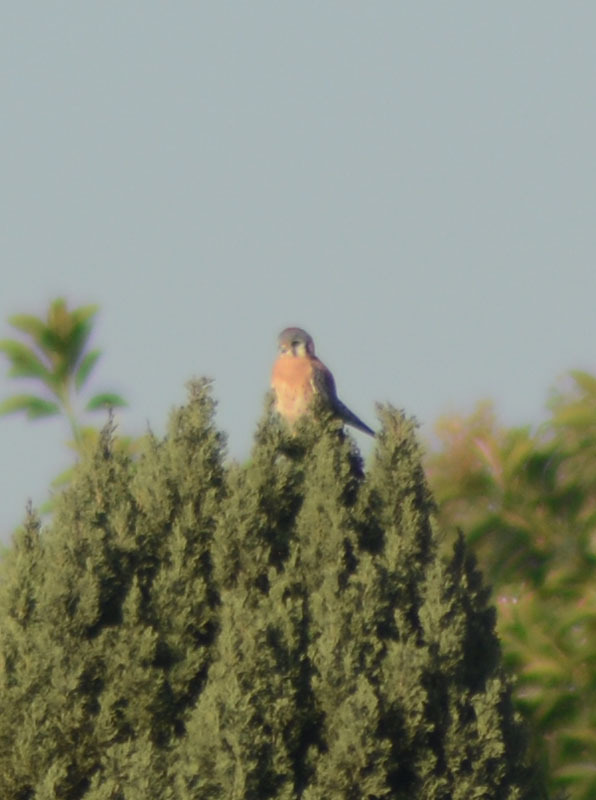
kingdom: Animalia
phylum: Chordata
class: Aves
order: Falconiformes
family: Falconidae
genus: Falco
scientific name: Falco sparverius
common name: American kestrel
